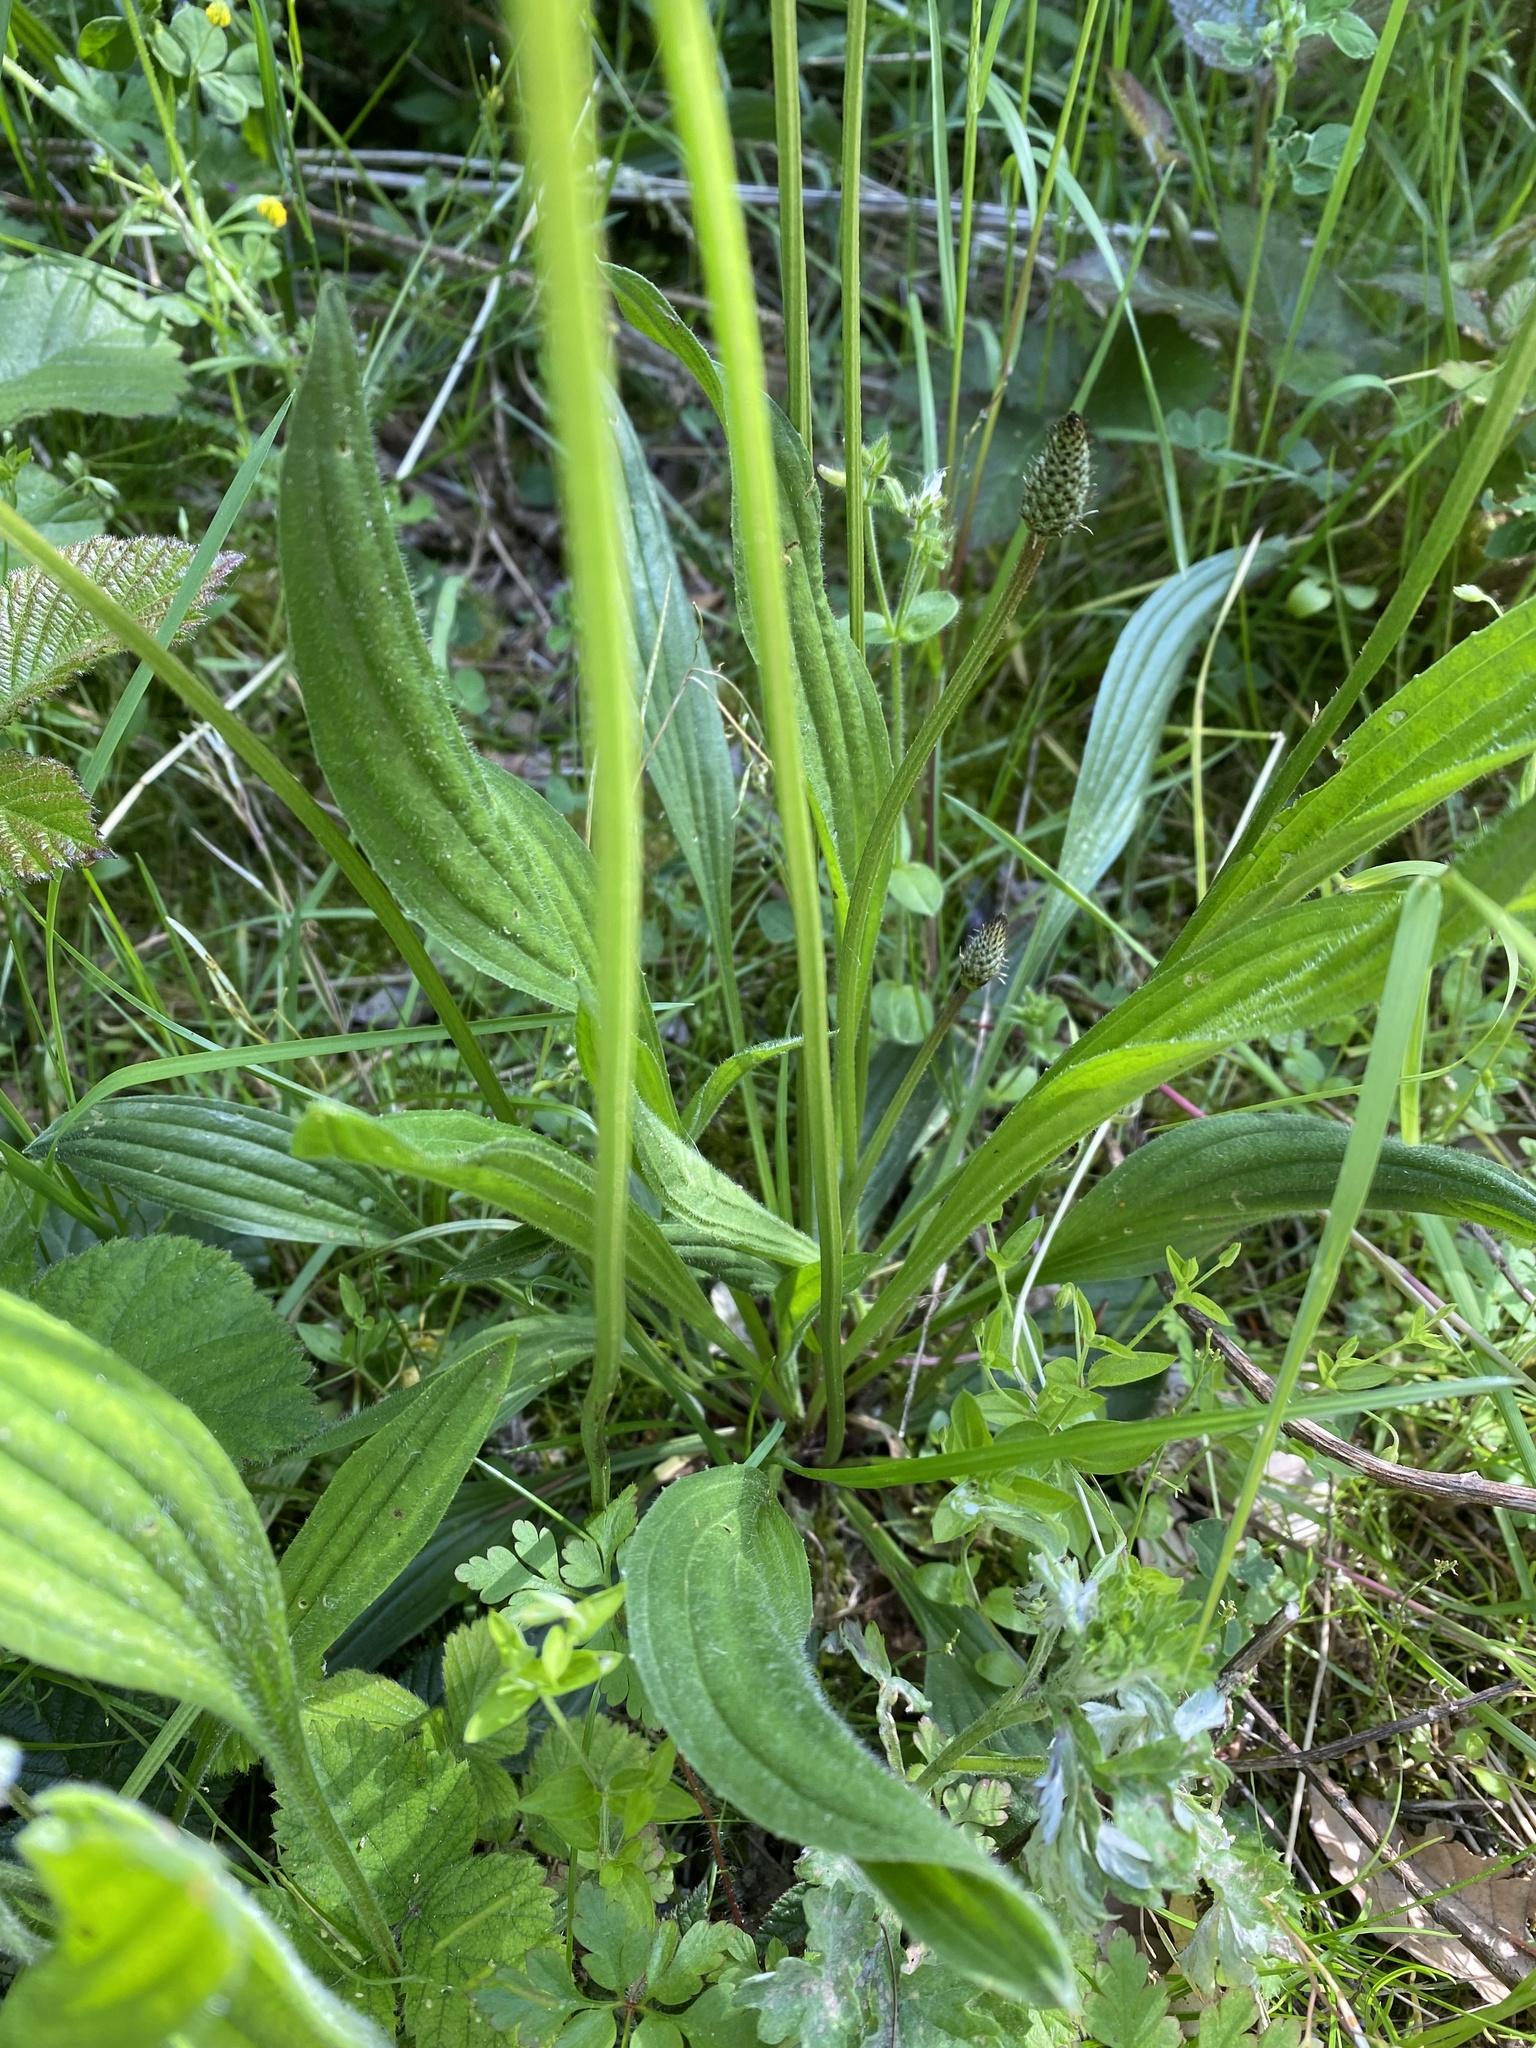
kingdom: Plantae
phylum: Tracheophyta
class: Magnoliopsida
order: Lamiales
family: Plantaginaceae
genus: Plantago
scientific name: Plantago lanceolata
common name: Ribwort plantain
